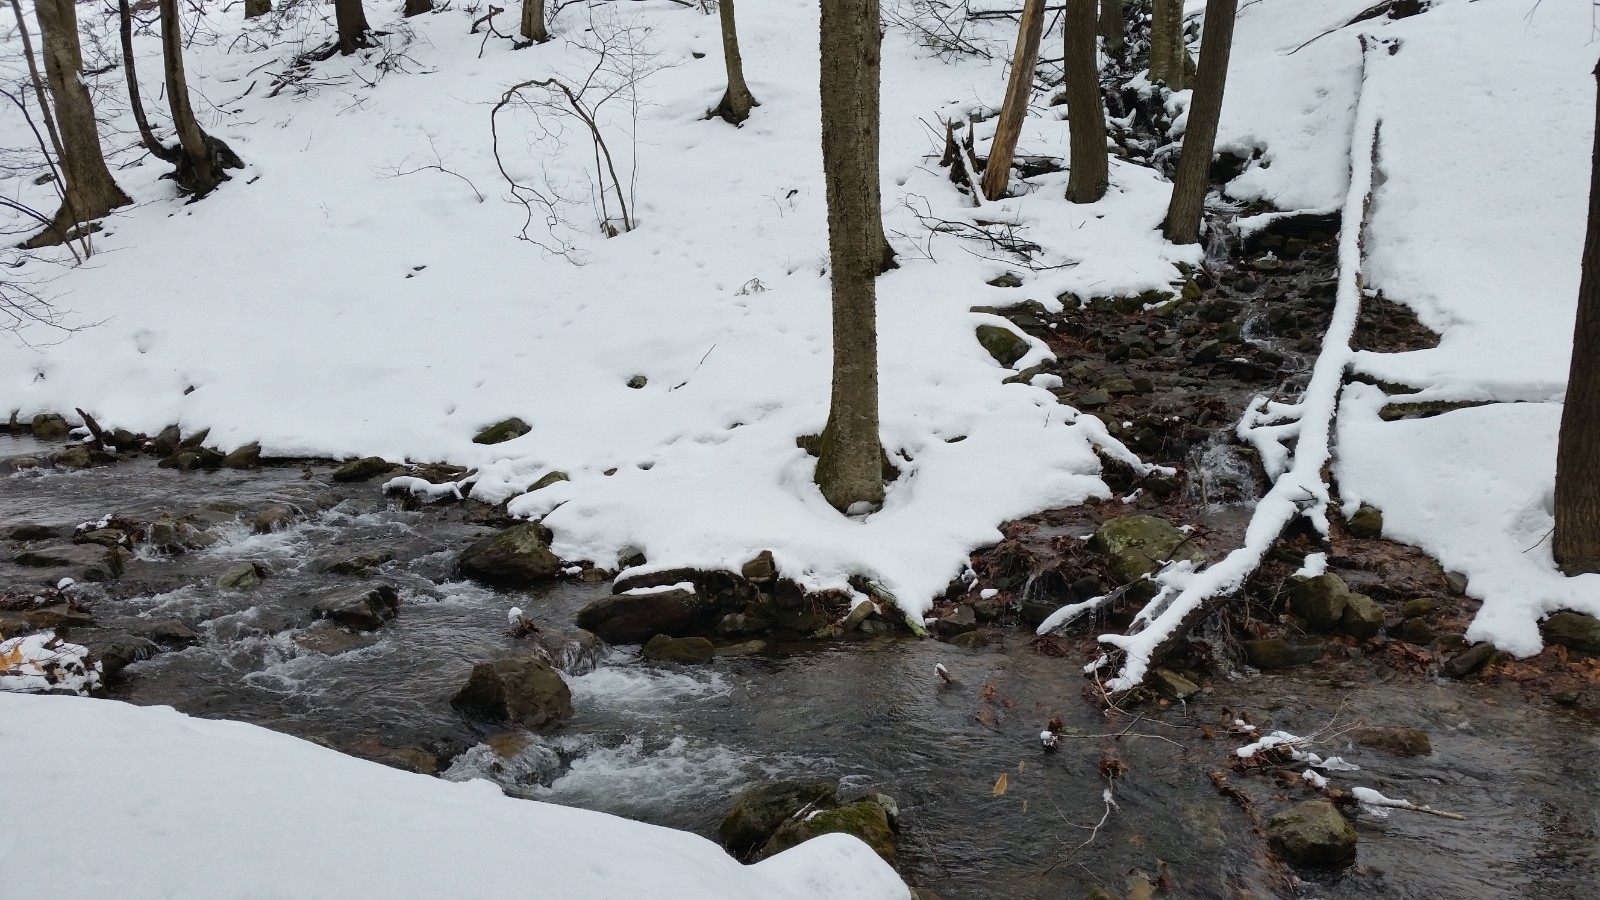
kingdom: Animalia
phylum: Arthropoda
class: Insecta
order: Mecoptera
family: Boreidae
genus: Boreus
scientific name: Boreus brumalis
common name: Mid-winter boreus
